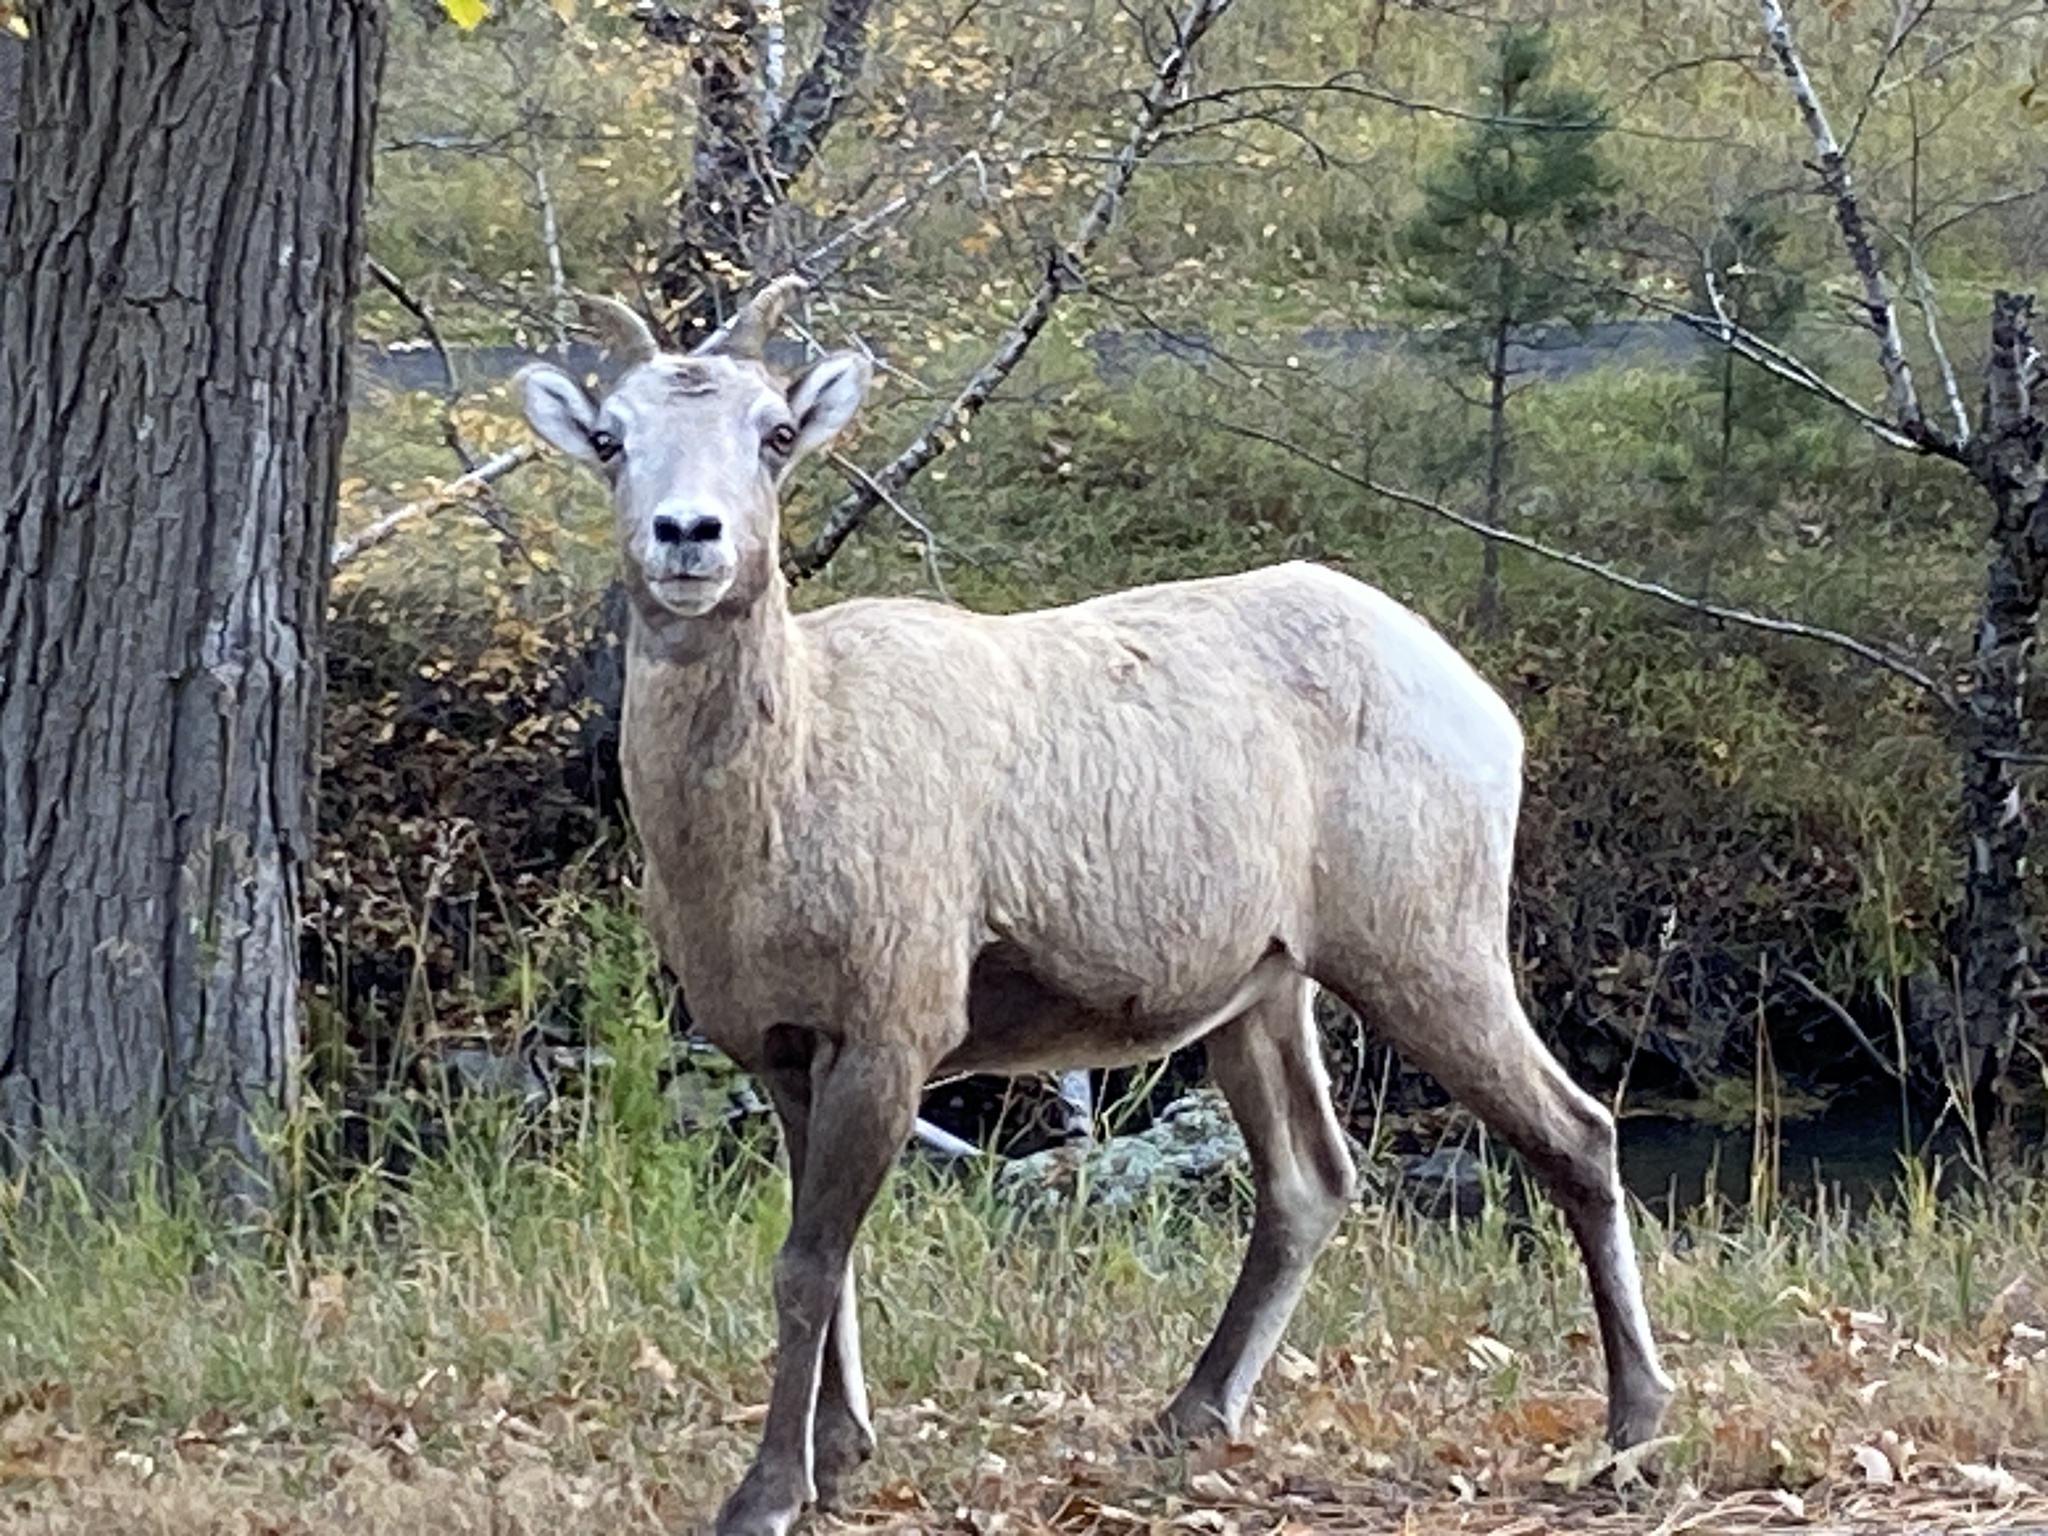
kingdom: Animalia
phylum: Chordata
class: Mammalia
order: Artiodactyla
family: Bovidae
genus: Ovis
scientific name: Ovis canadensis
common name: Bighorn sheep
